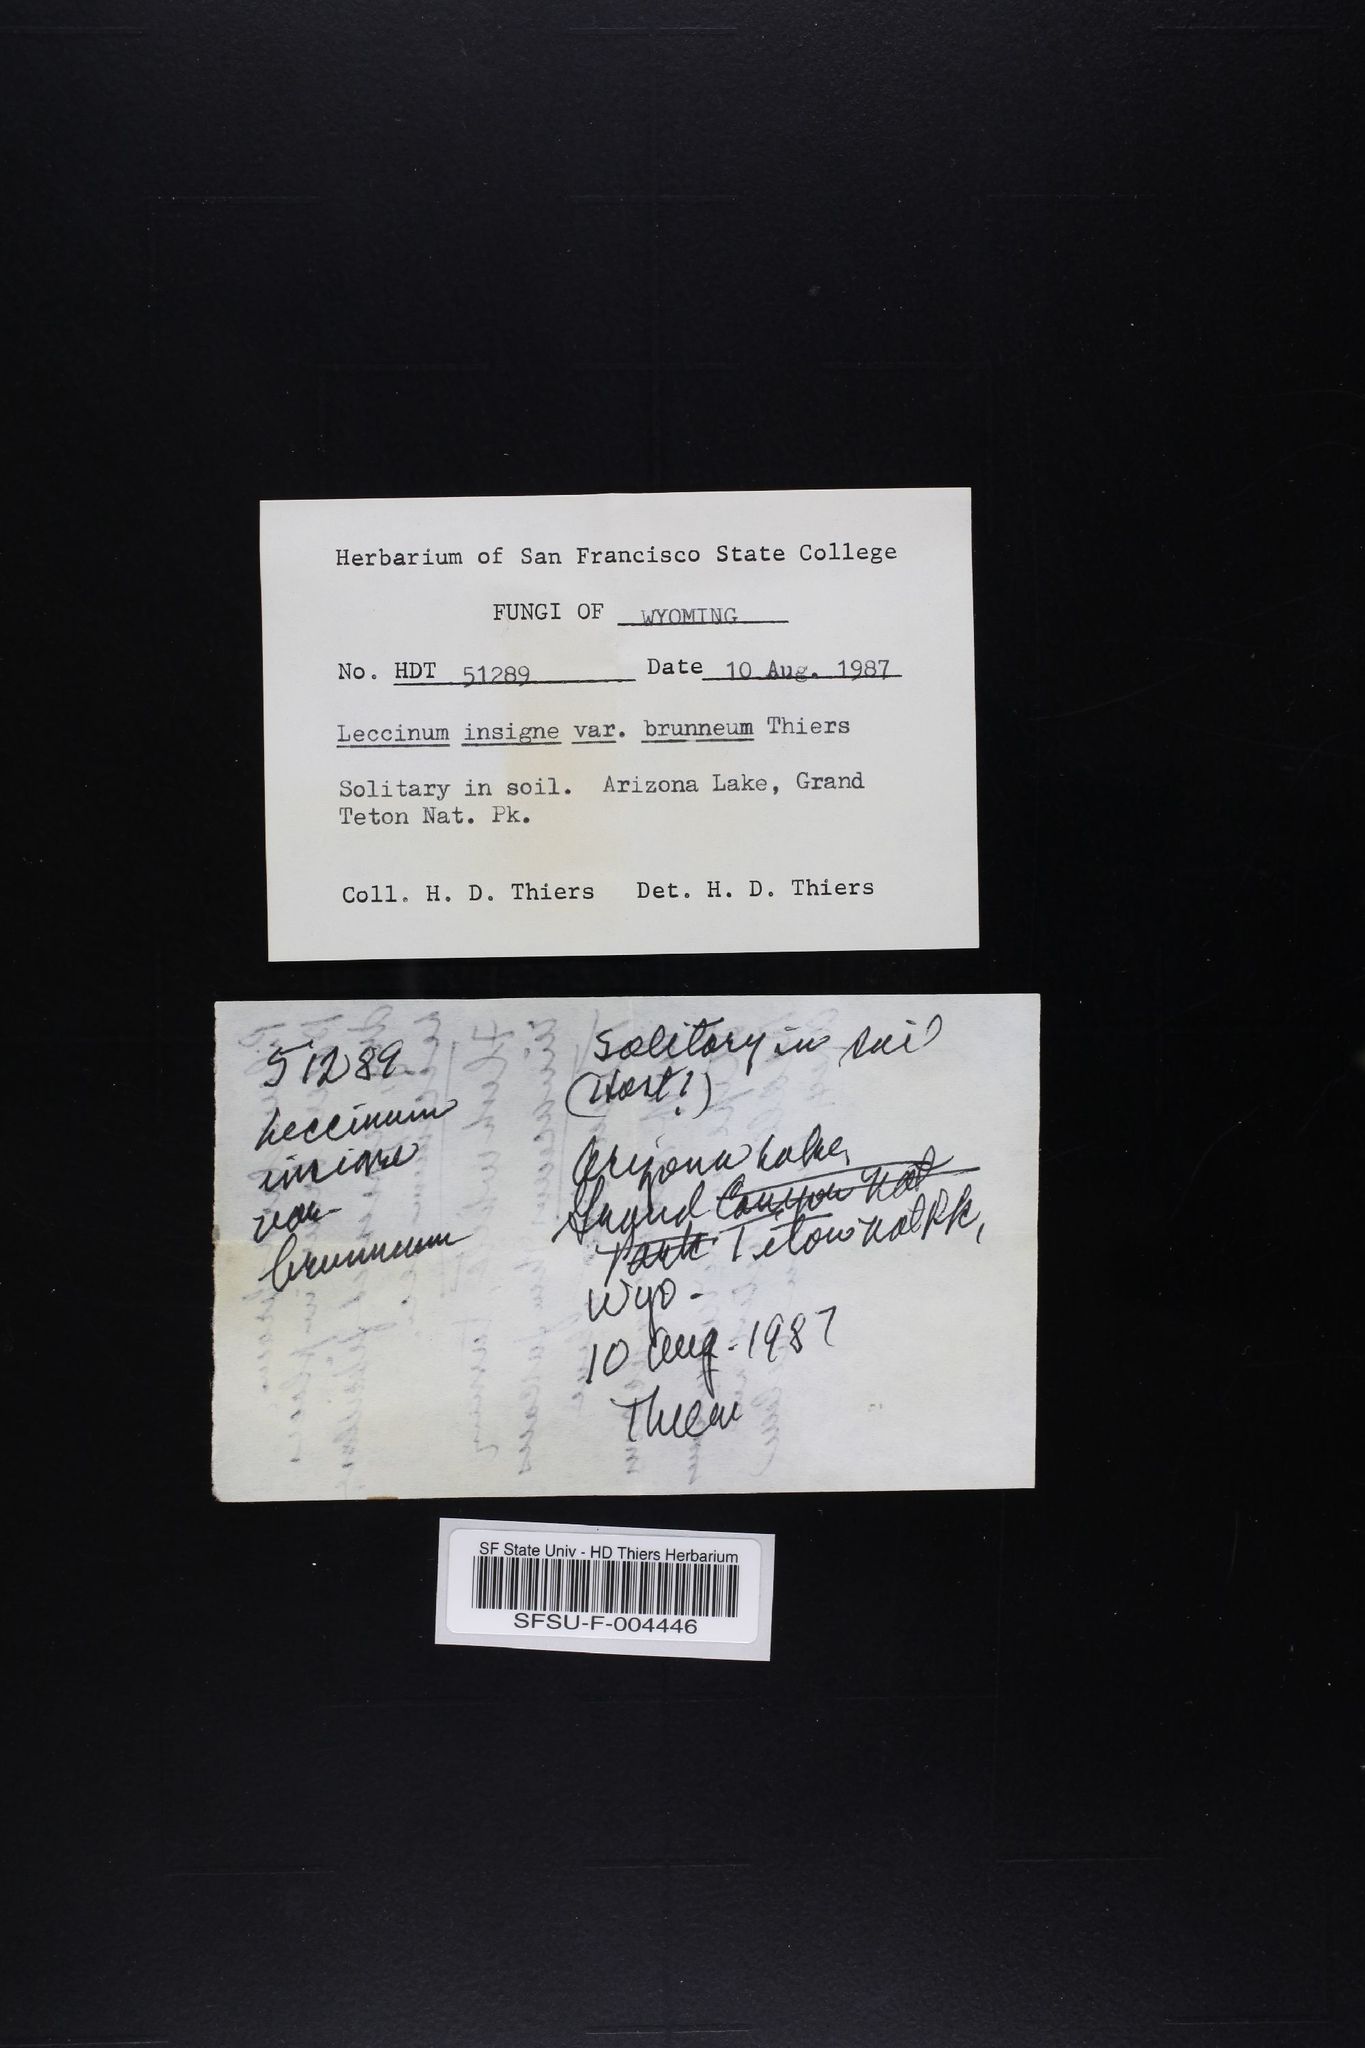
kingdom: Fungi
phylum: Basidiomycota
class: Agaricomycetes
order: Boletales
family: Boletaceae
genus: Leccinum
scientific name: Leccinum insigne
